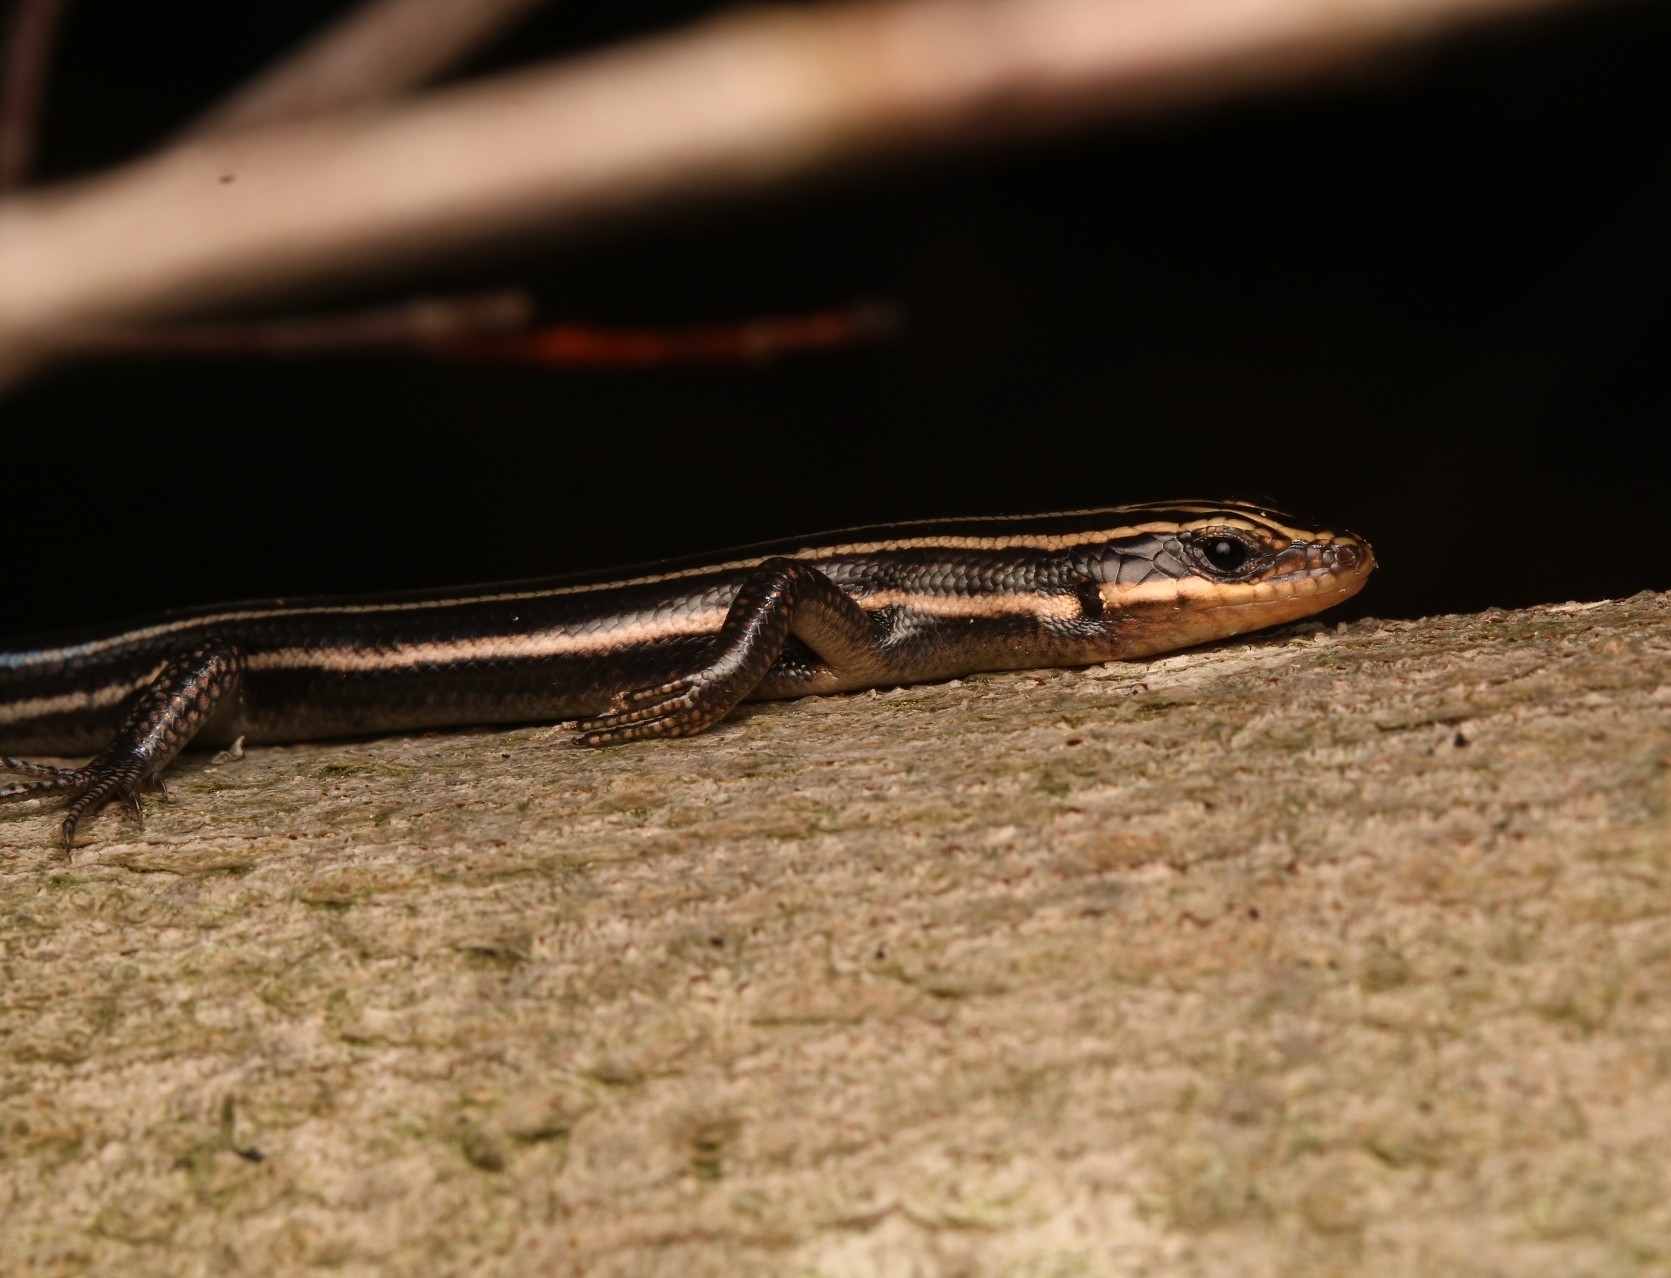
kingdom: Animalia
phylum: Chordata
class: Squamata
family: Scincidae
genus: Plestiodon
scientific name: Plestiodon fasciatus
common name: Five-lined skink
